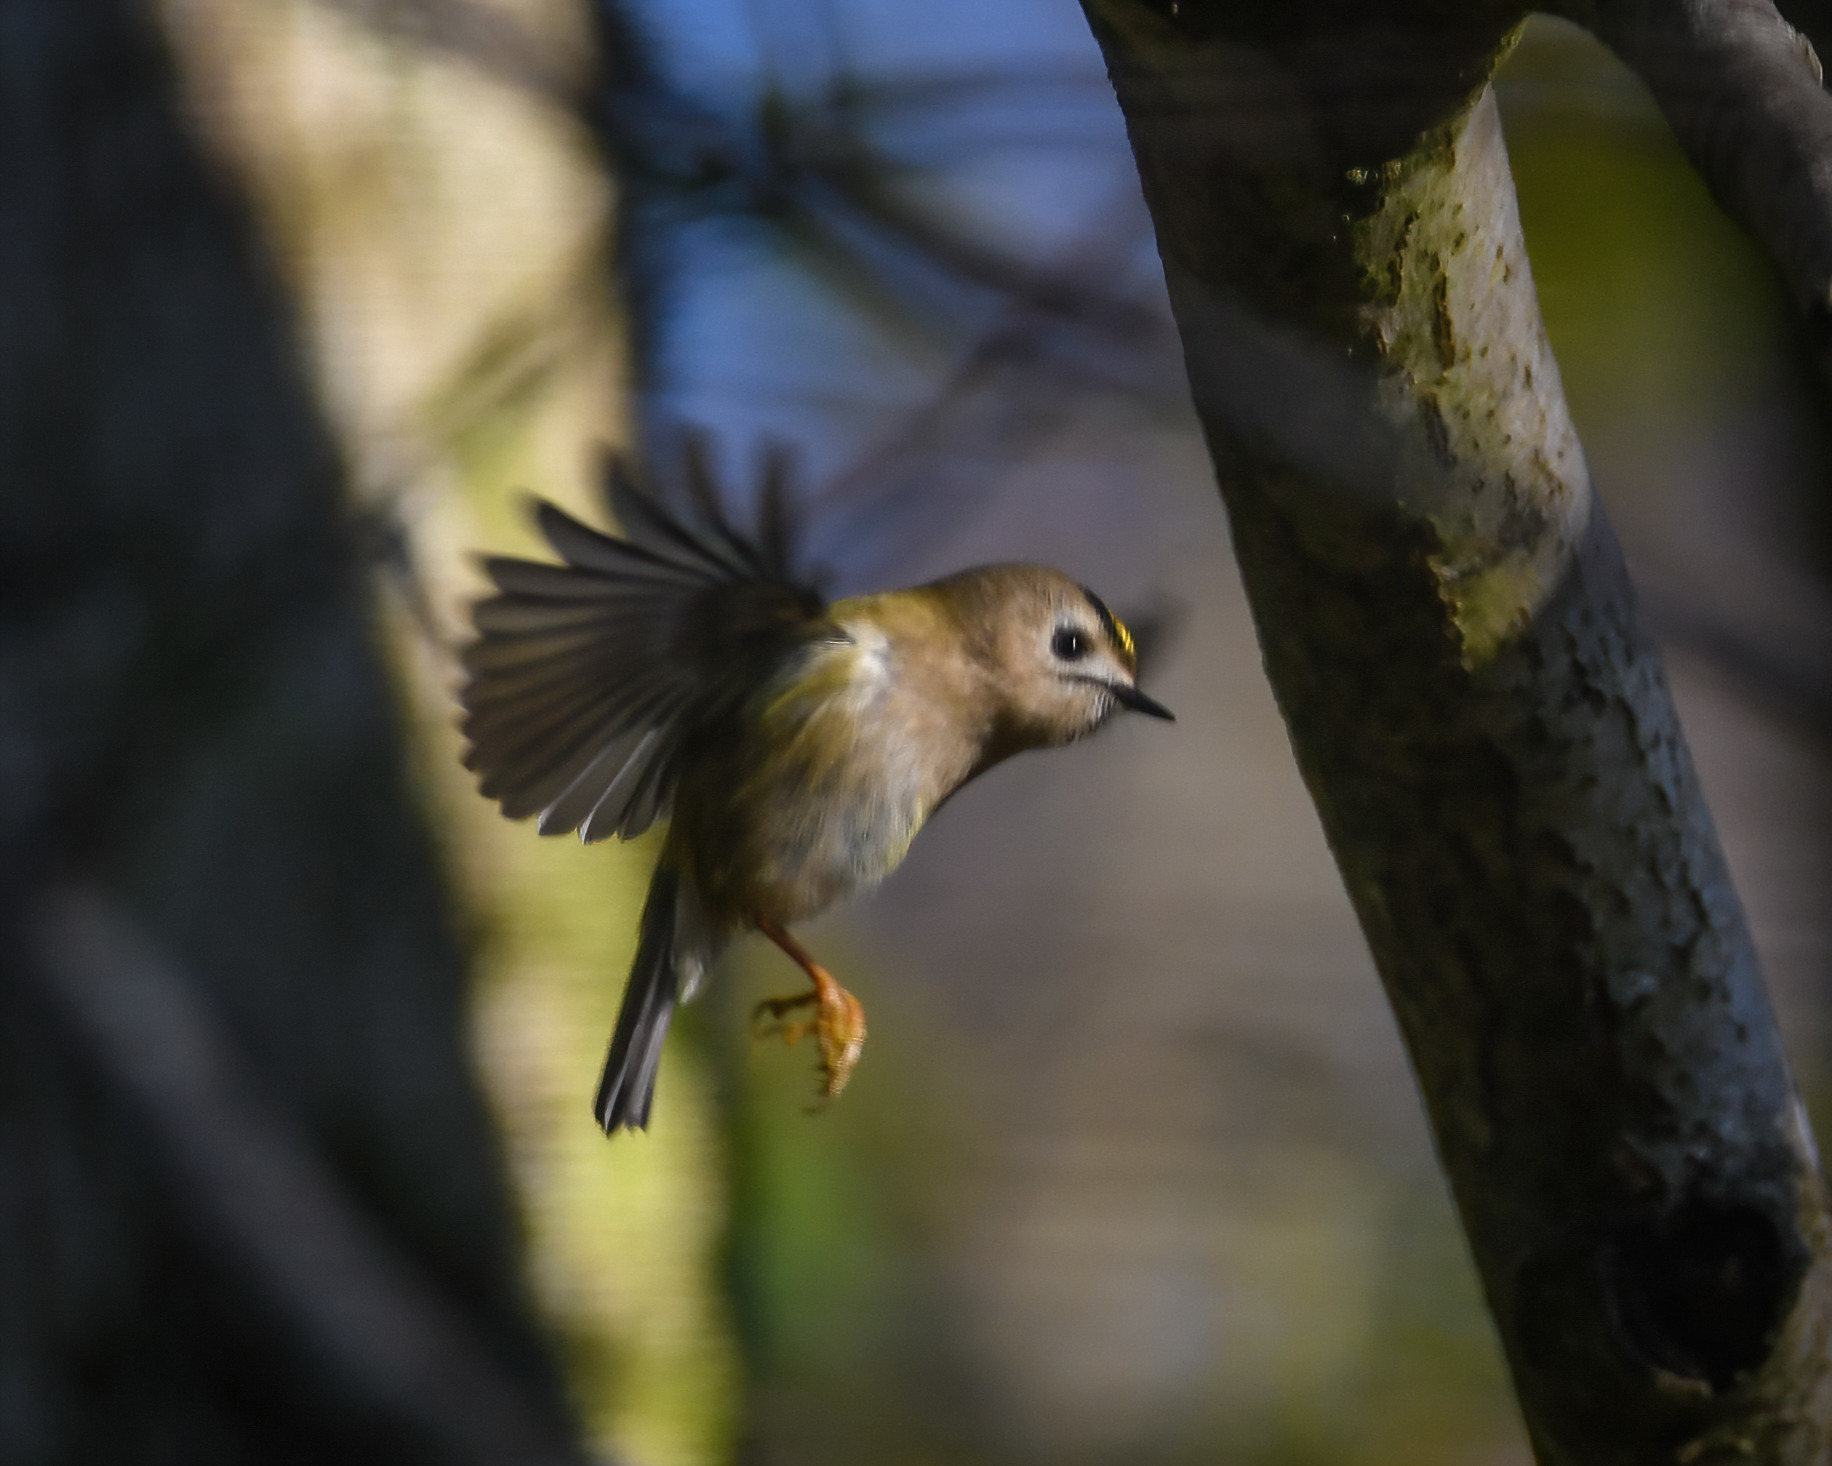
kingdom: Animalia
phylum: Chordata
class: Aves
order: Passeriformes
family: Regulidae
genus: Regulus
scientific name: Regulus regulus
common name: Goldcrest
